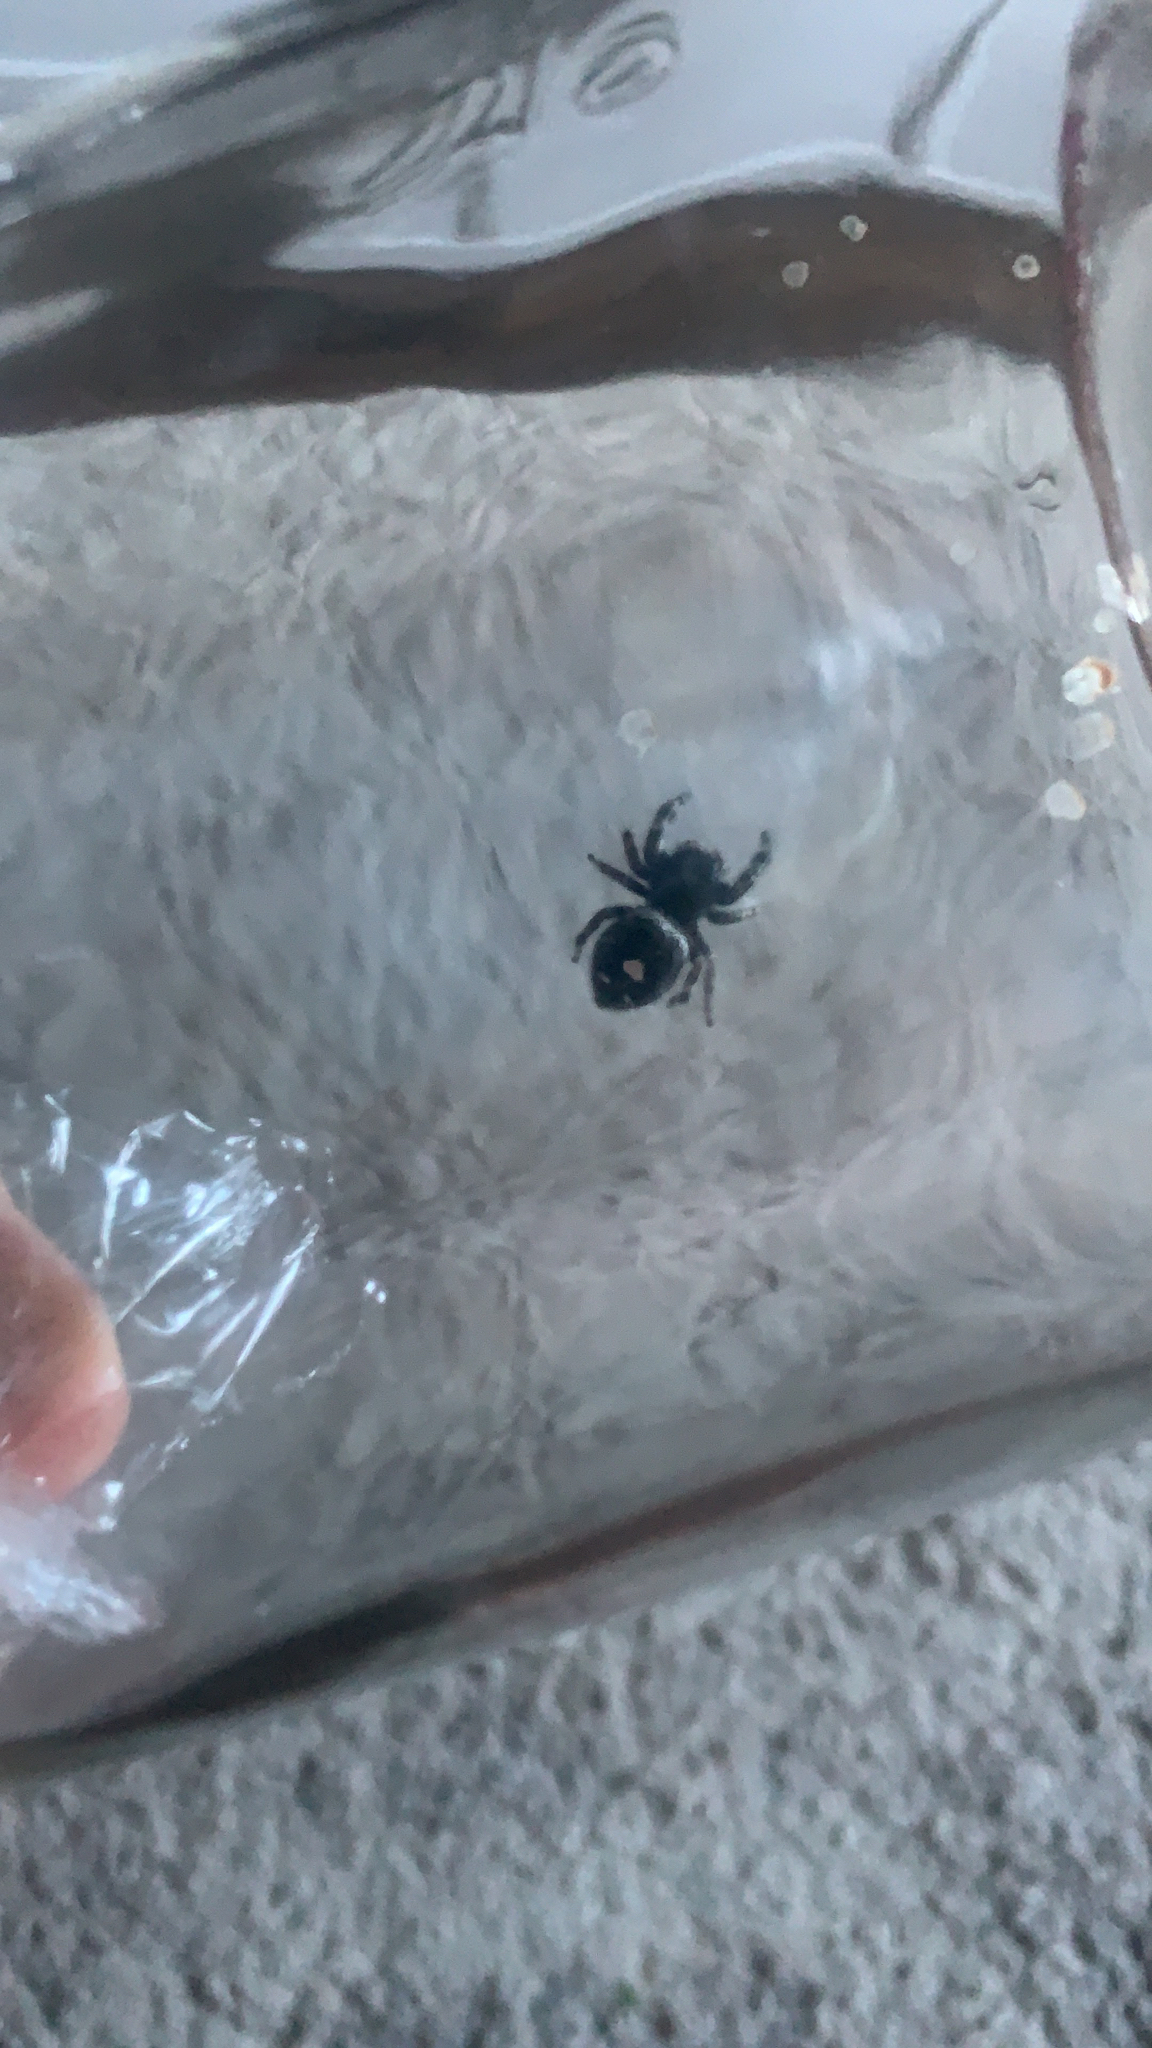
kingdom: Animalia
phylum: Arthropoda
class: Arachnida
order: Araneae
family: Salticidae
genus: Phidippus
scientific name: Phidippus audax
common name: Bold jumper
